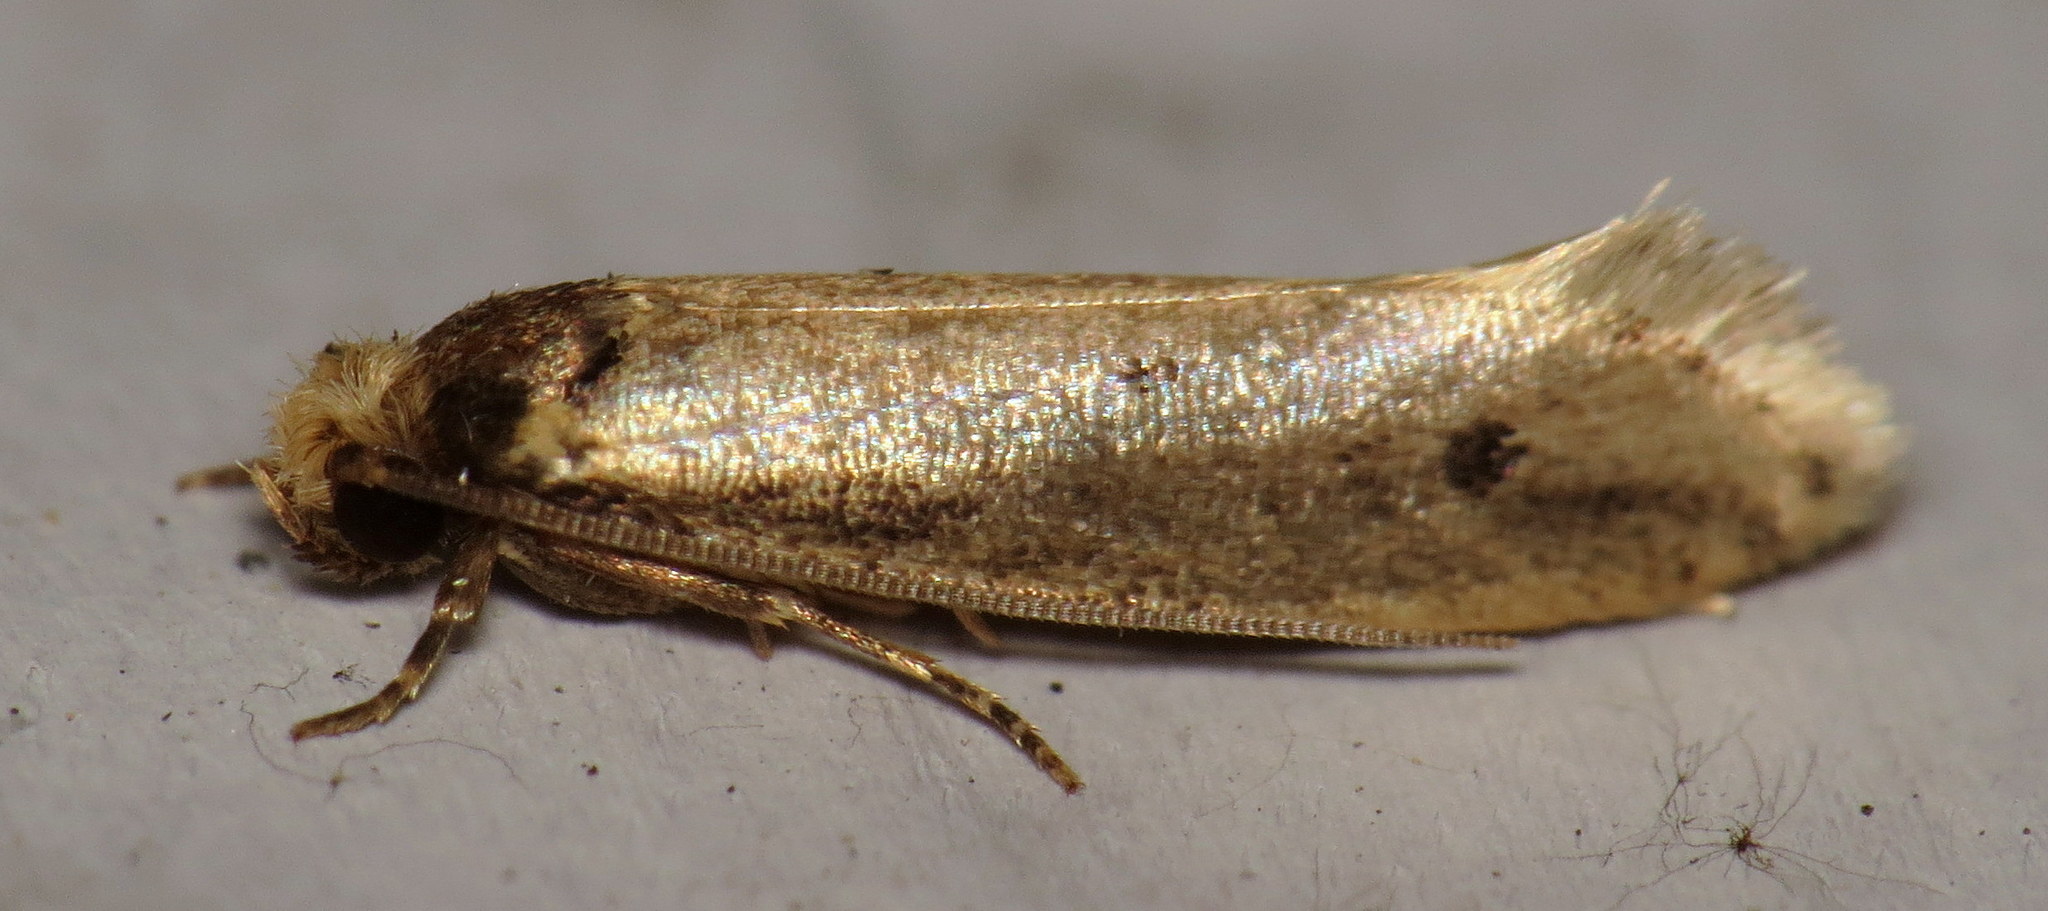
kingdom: Animalia
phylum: Arthropoda
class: Insecta
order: Lepidoptera
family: Tineidae
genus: Tinea
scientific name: Tinea apicimaculella
